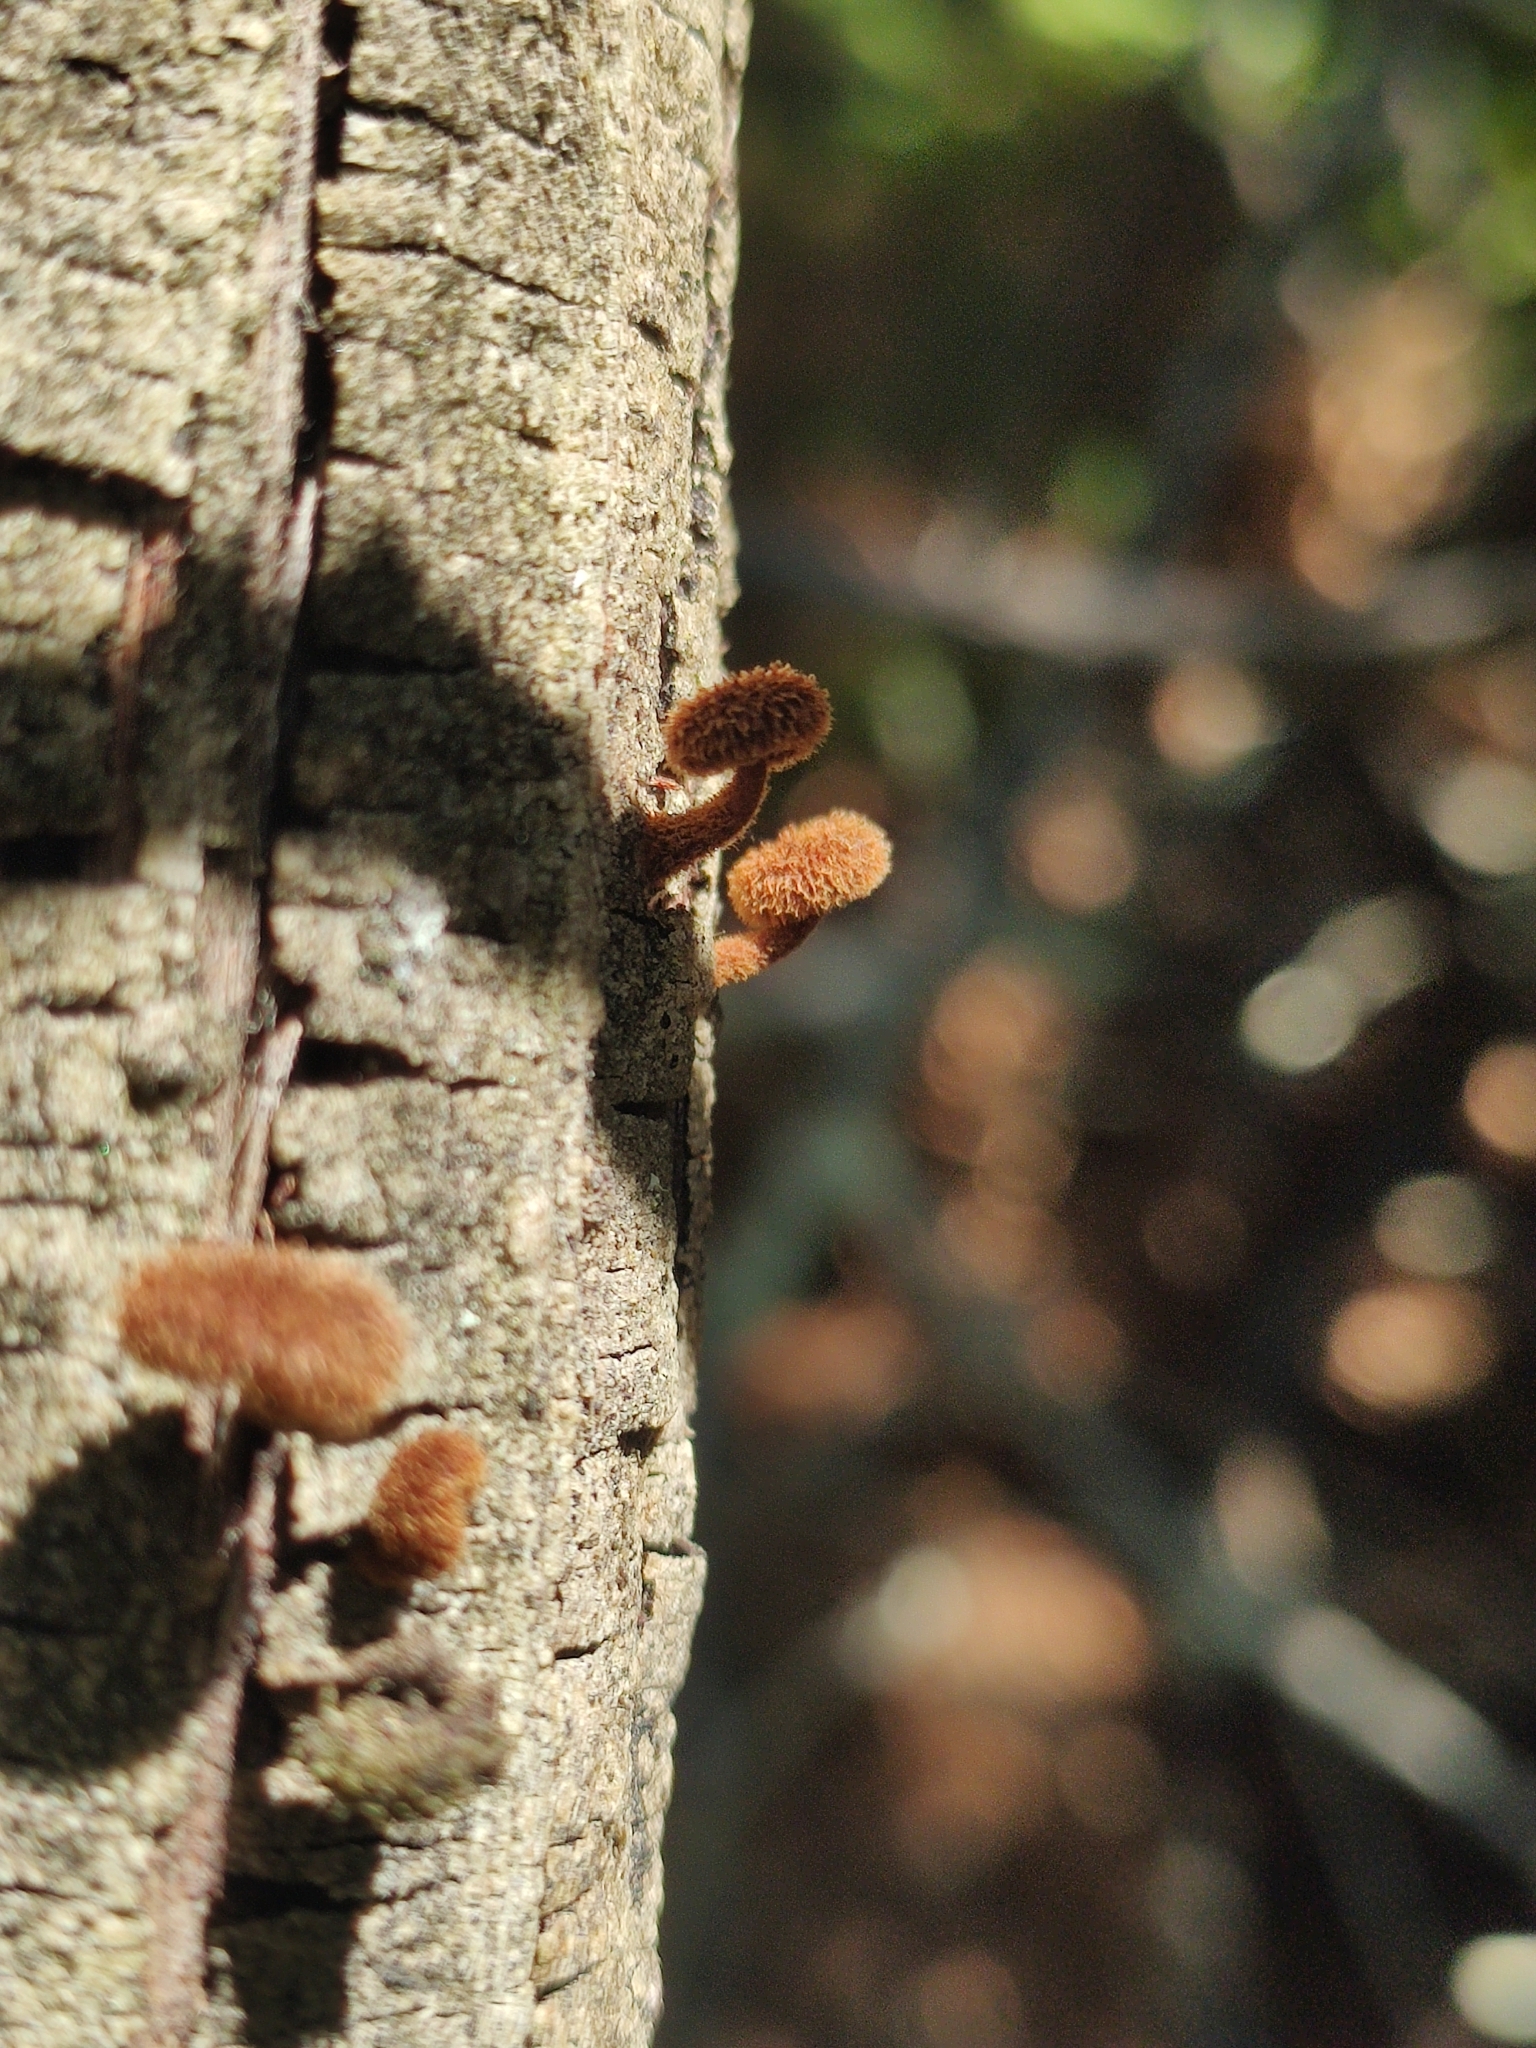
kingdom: Fungi
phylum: Basidiomycota
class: Agaricomycetes
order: Agaricales
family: Tubariaceae
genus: Phaeomarasmius
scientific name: Phaeomarasmius erinaceus
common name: Hedgehog scalycap
